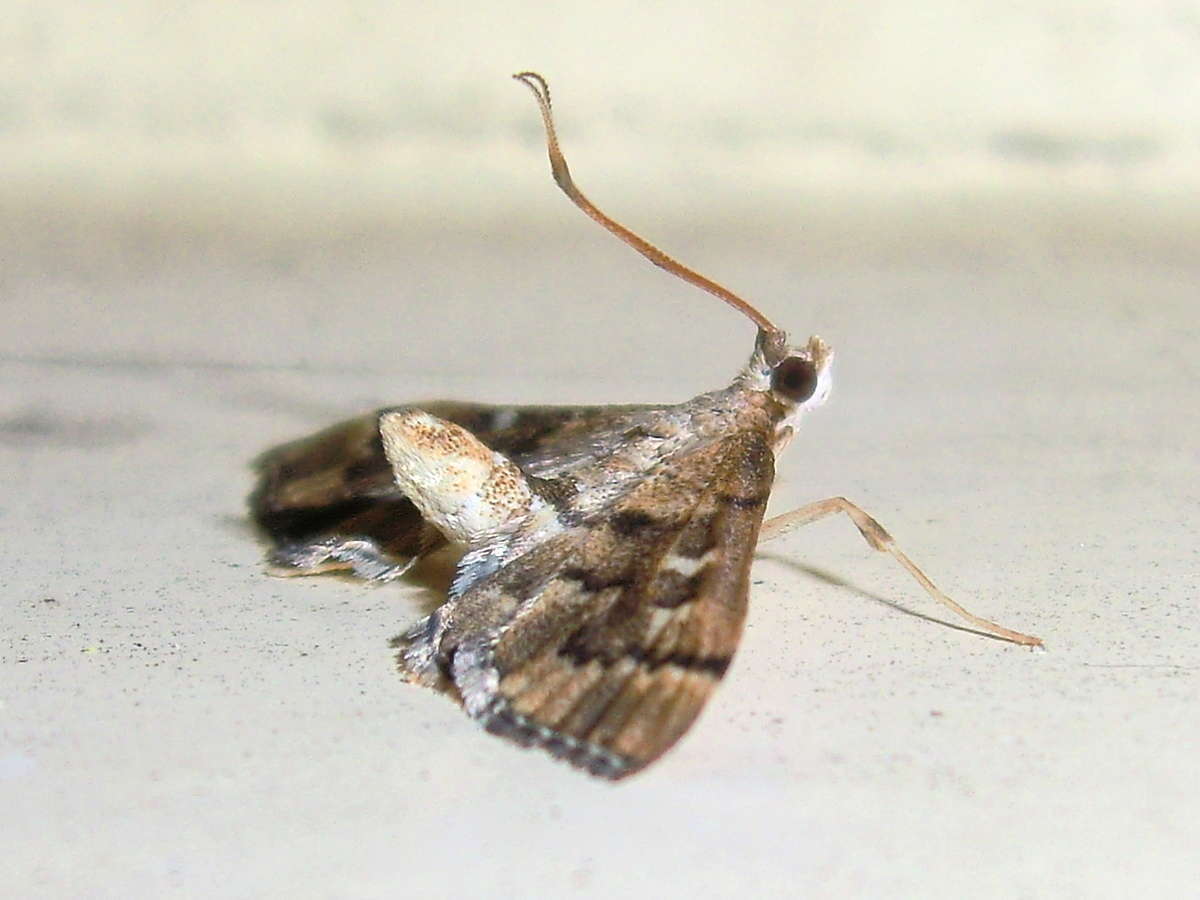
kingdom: Animalia
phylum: Arthropoda
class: Insecta
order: Lepidoptera
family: Crambidae
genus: Nacoleia
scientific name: Nacoleia rhoeoalis
